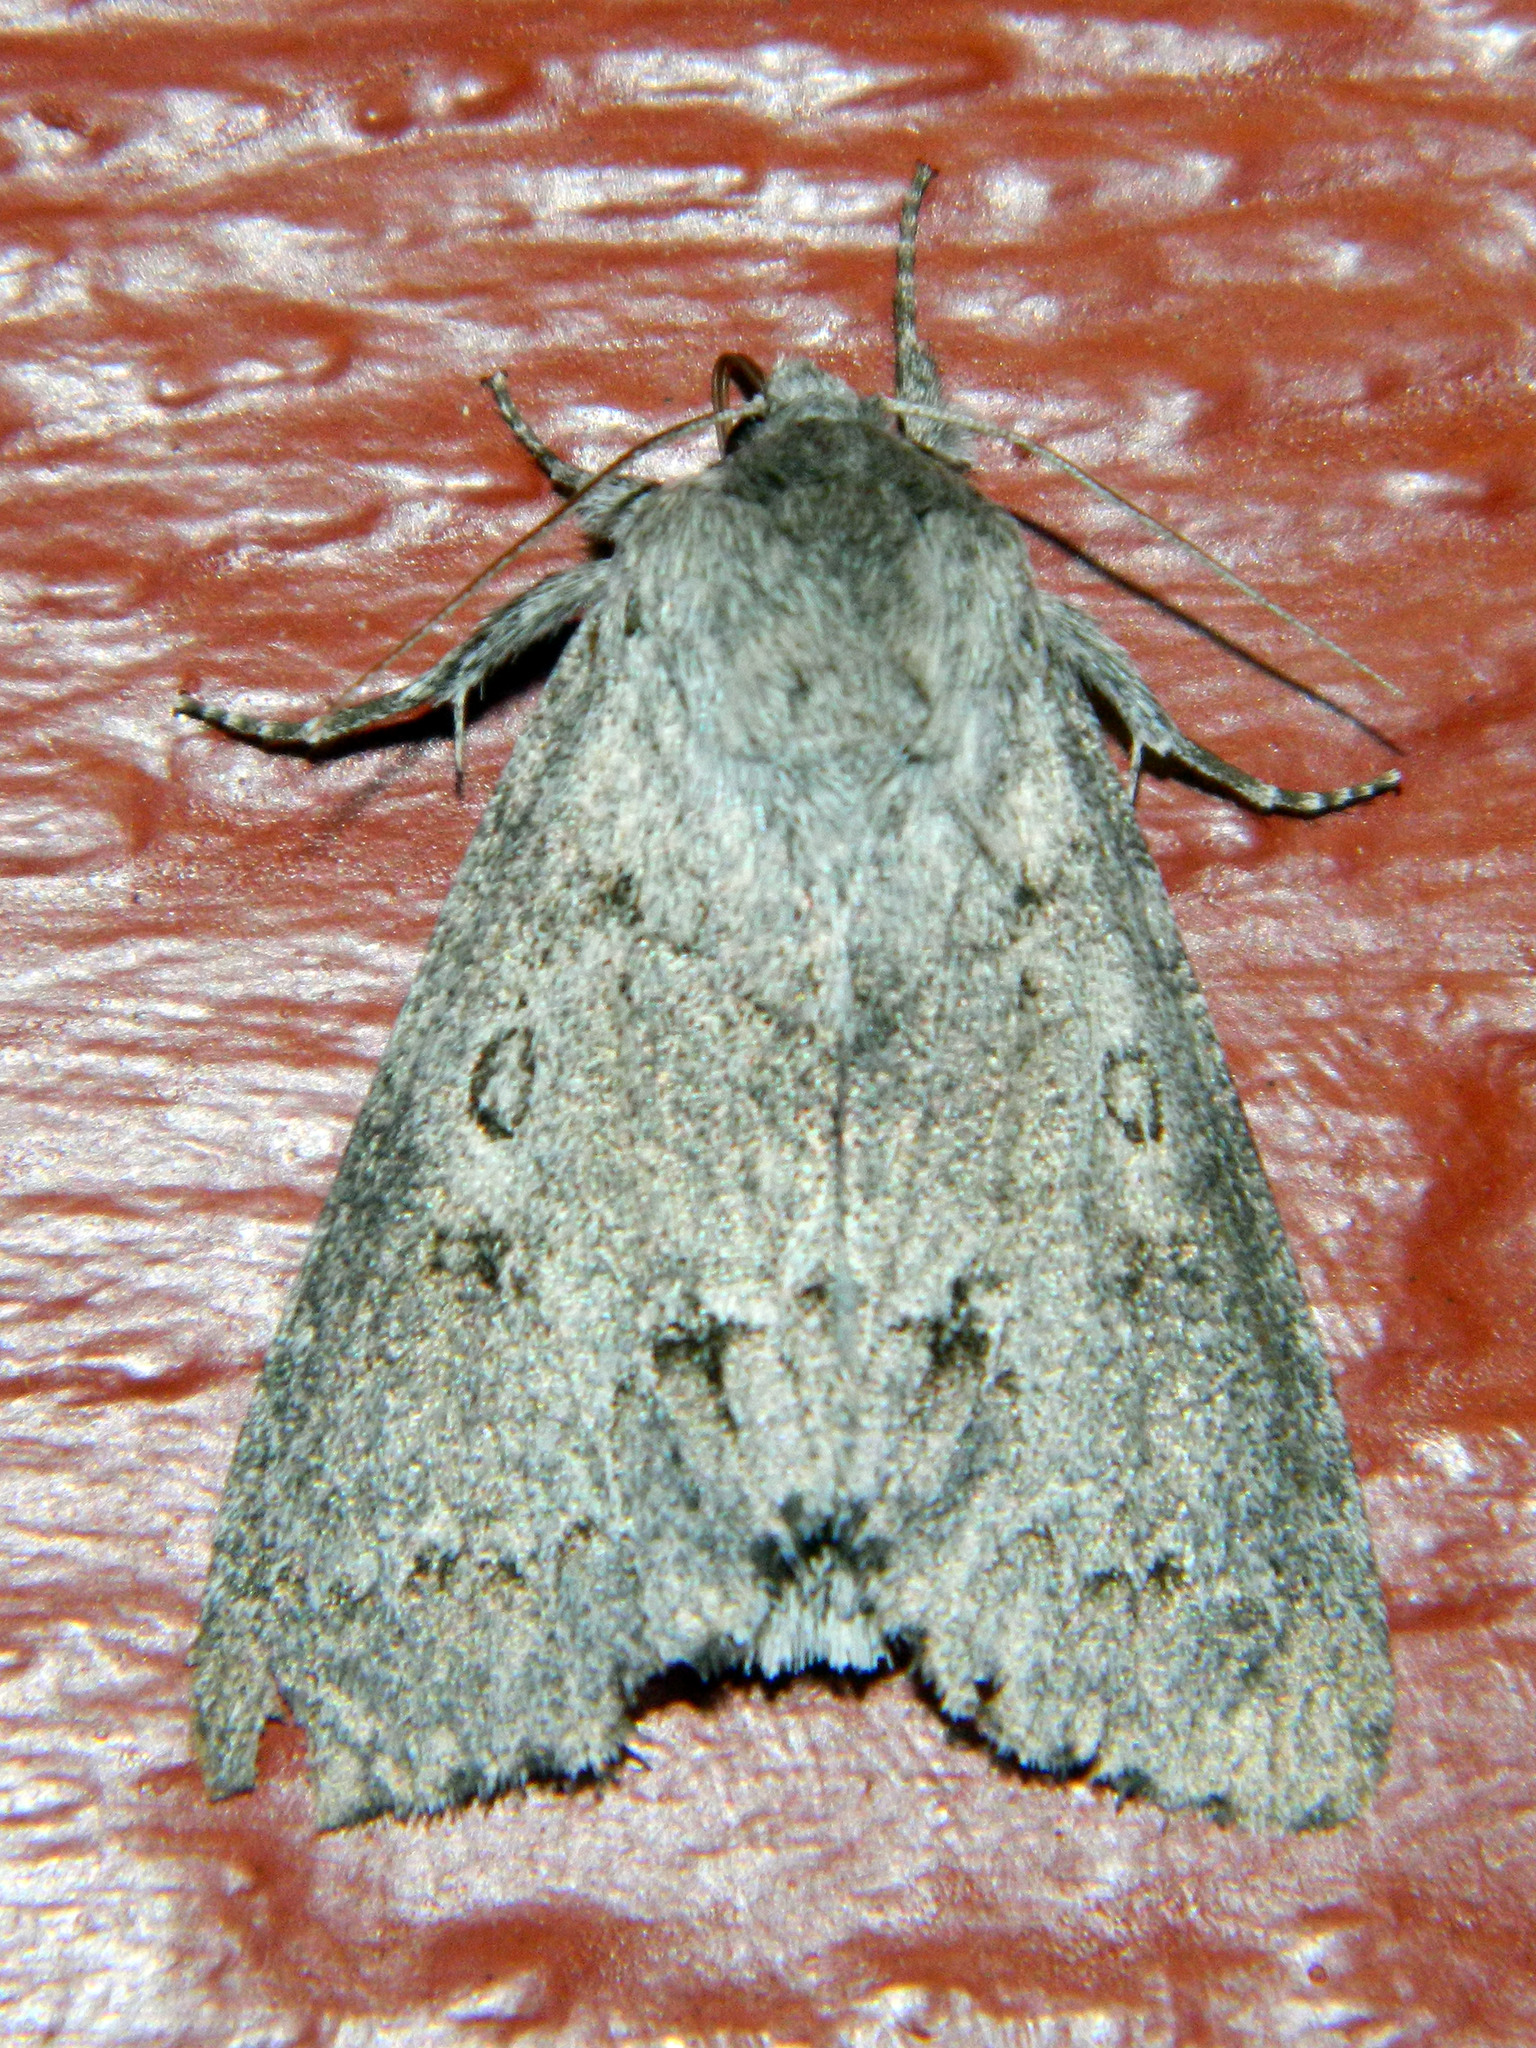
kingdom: Animalia
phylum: Arthropoda
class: Insecta
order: Lepidoptera
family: Noctuidae
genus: Acronicta
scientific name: Acronicta insita
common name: Large gray dagger
